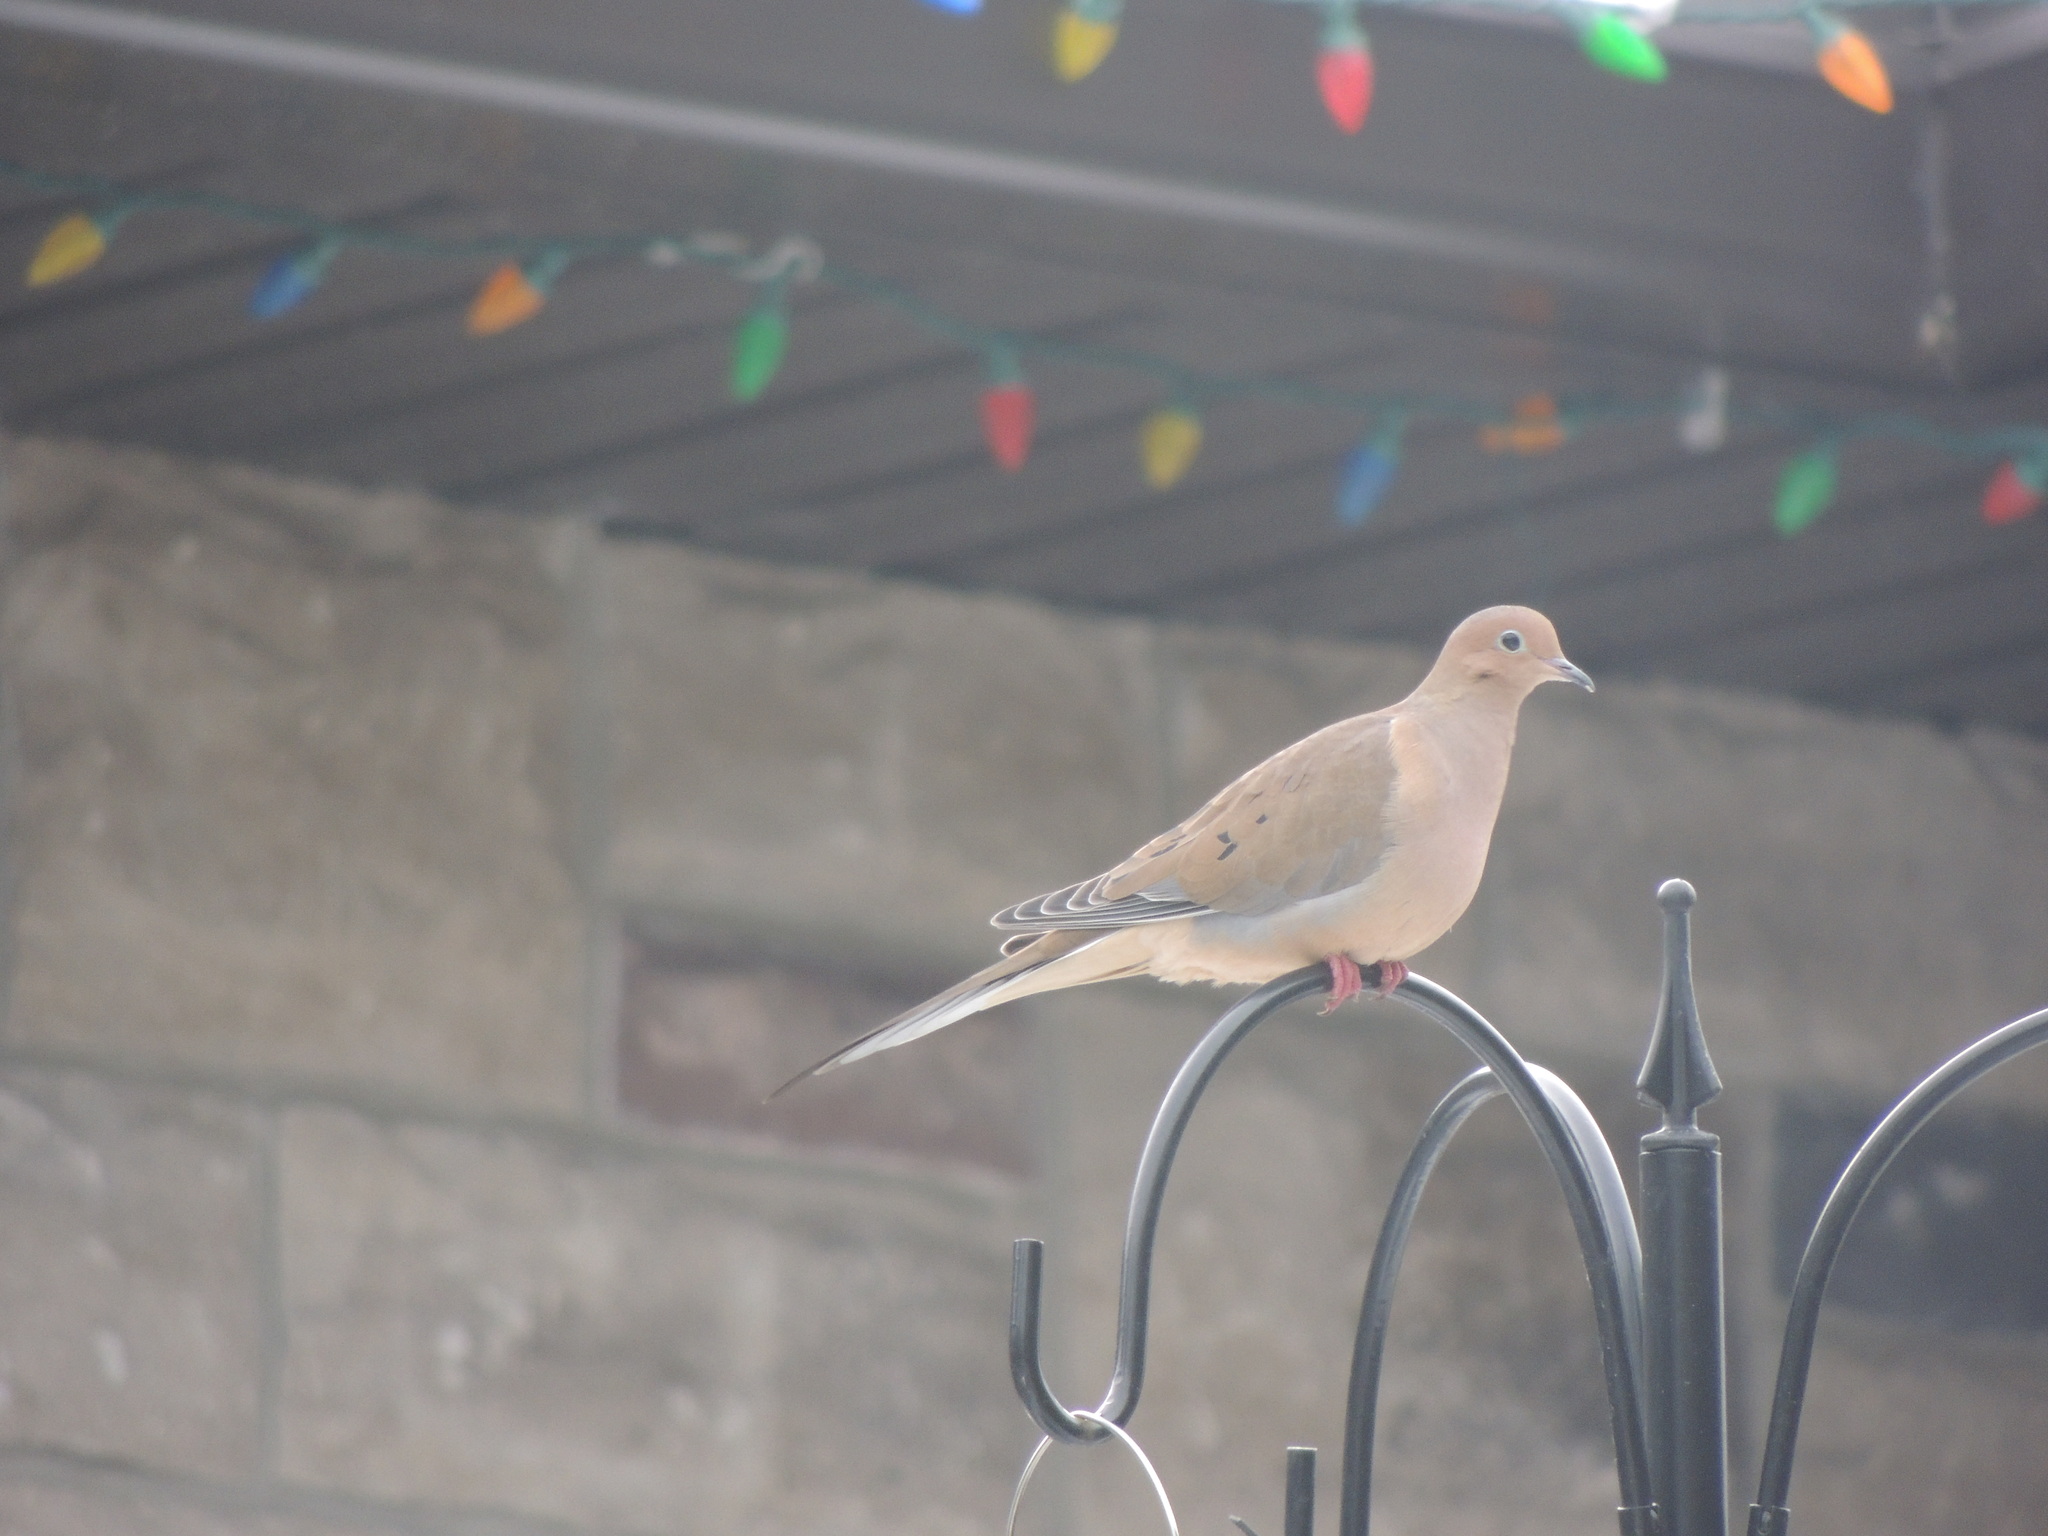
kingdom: Animalia
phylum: Chordata
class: Aves
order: Columbiformes
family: Columbidae
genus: Zenaida
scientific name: Zenaida macroura
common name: Mourning dove
